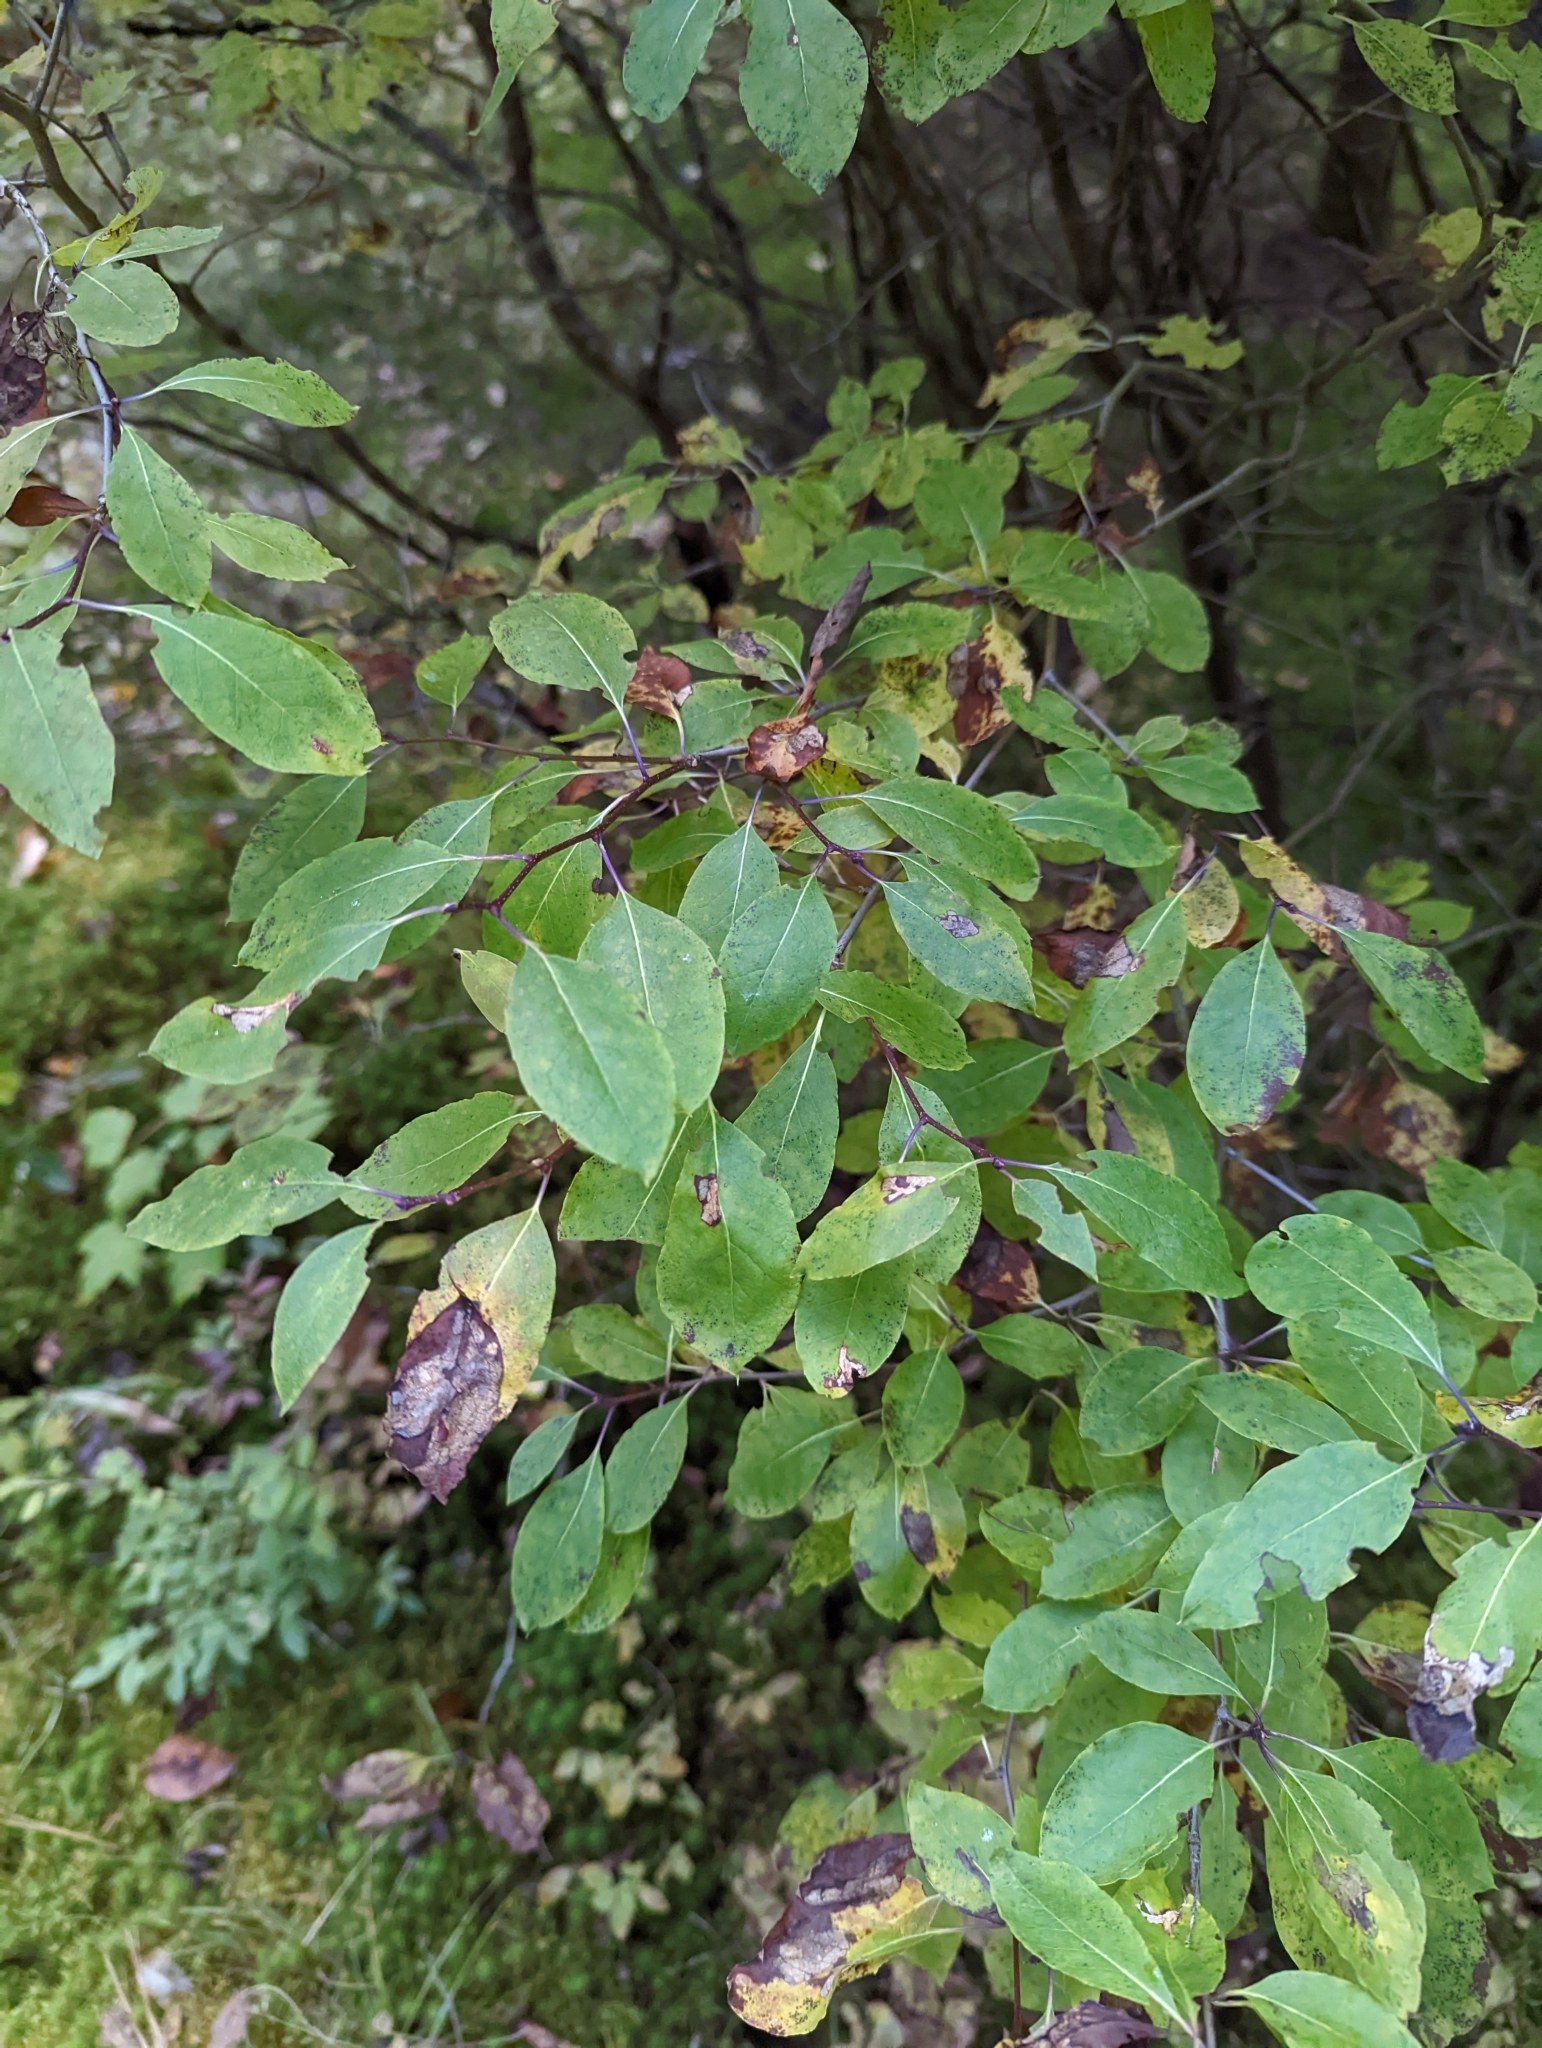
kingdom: Plantae
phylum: Tracheophyta
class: Magnoliopsida
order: Aquifoliales
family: Aquifoliaceae
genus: Ilex
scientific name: Ilex mucronata
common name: Catberry
